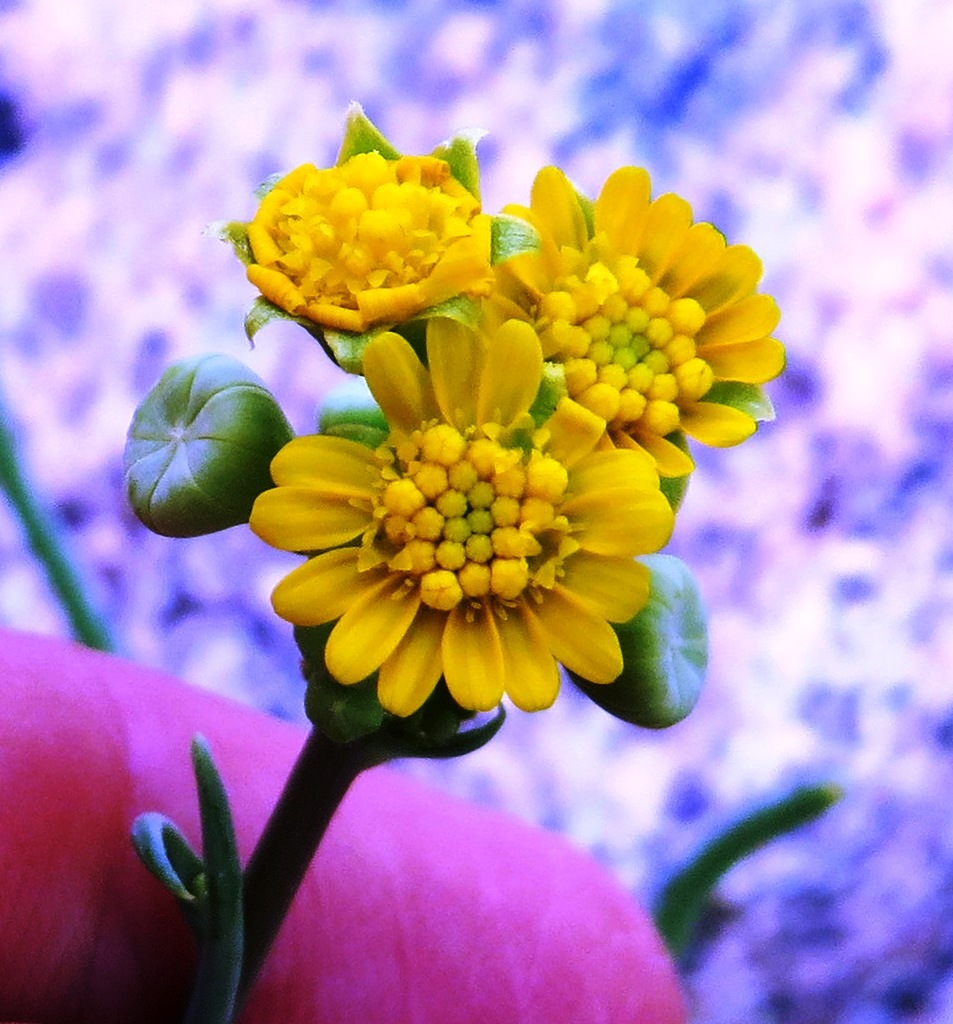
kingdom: Plantae
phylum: Tracheophyta
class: Magnoliopsida
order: Asterales
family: Asteraceae
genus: Gymnodiscus
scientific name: Gymnodiscus linearifolius
